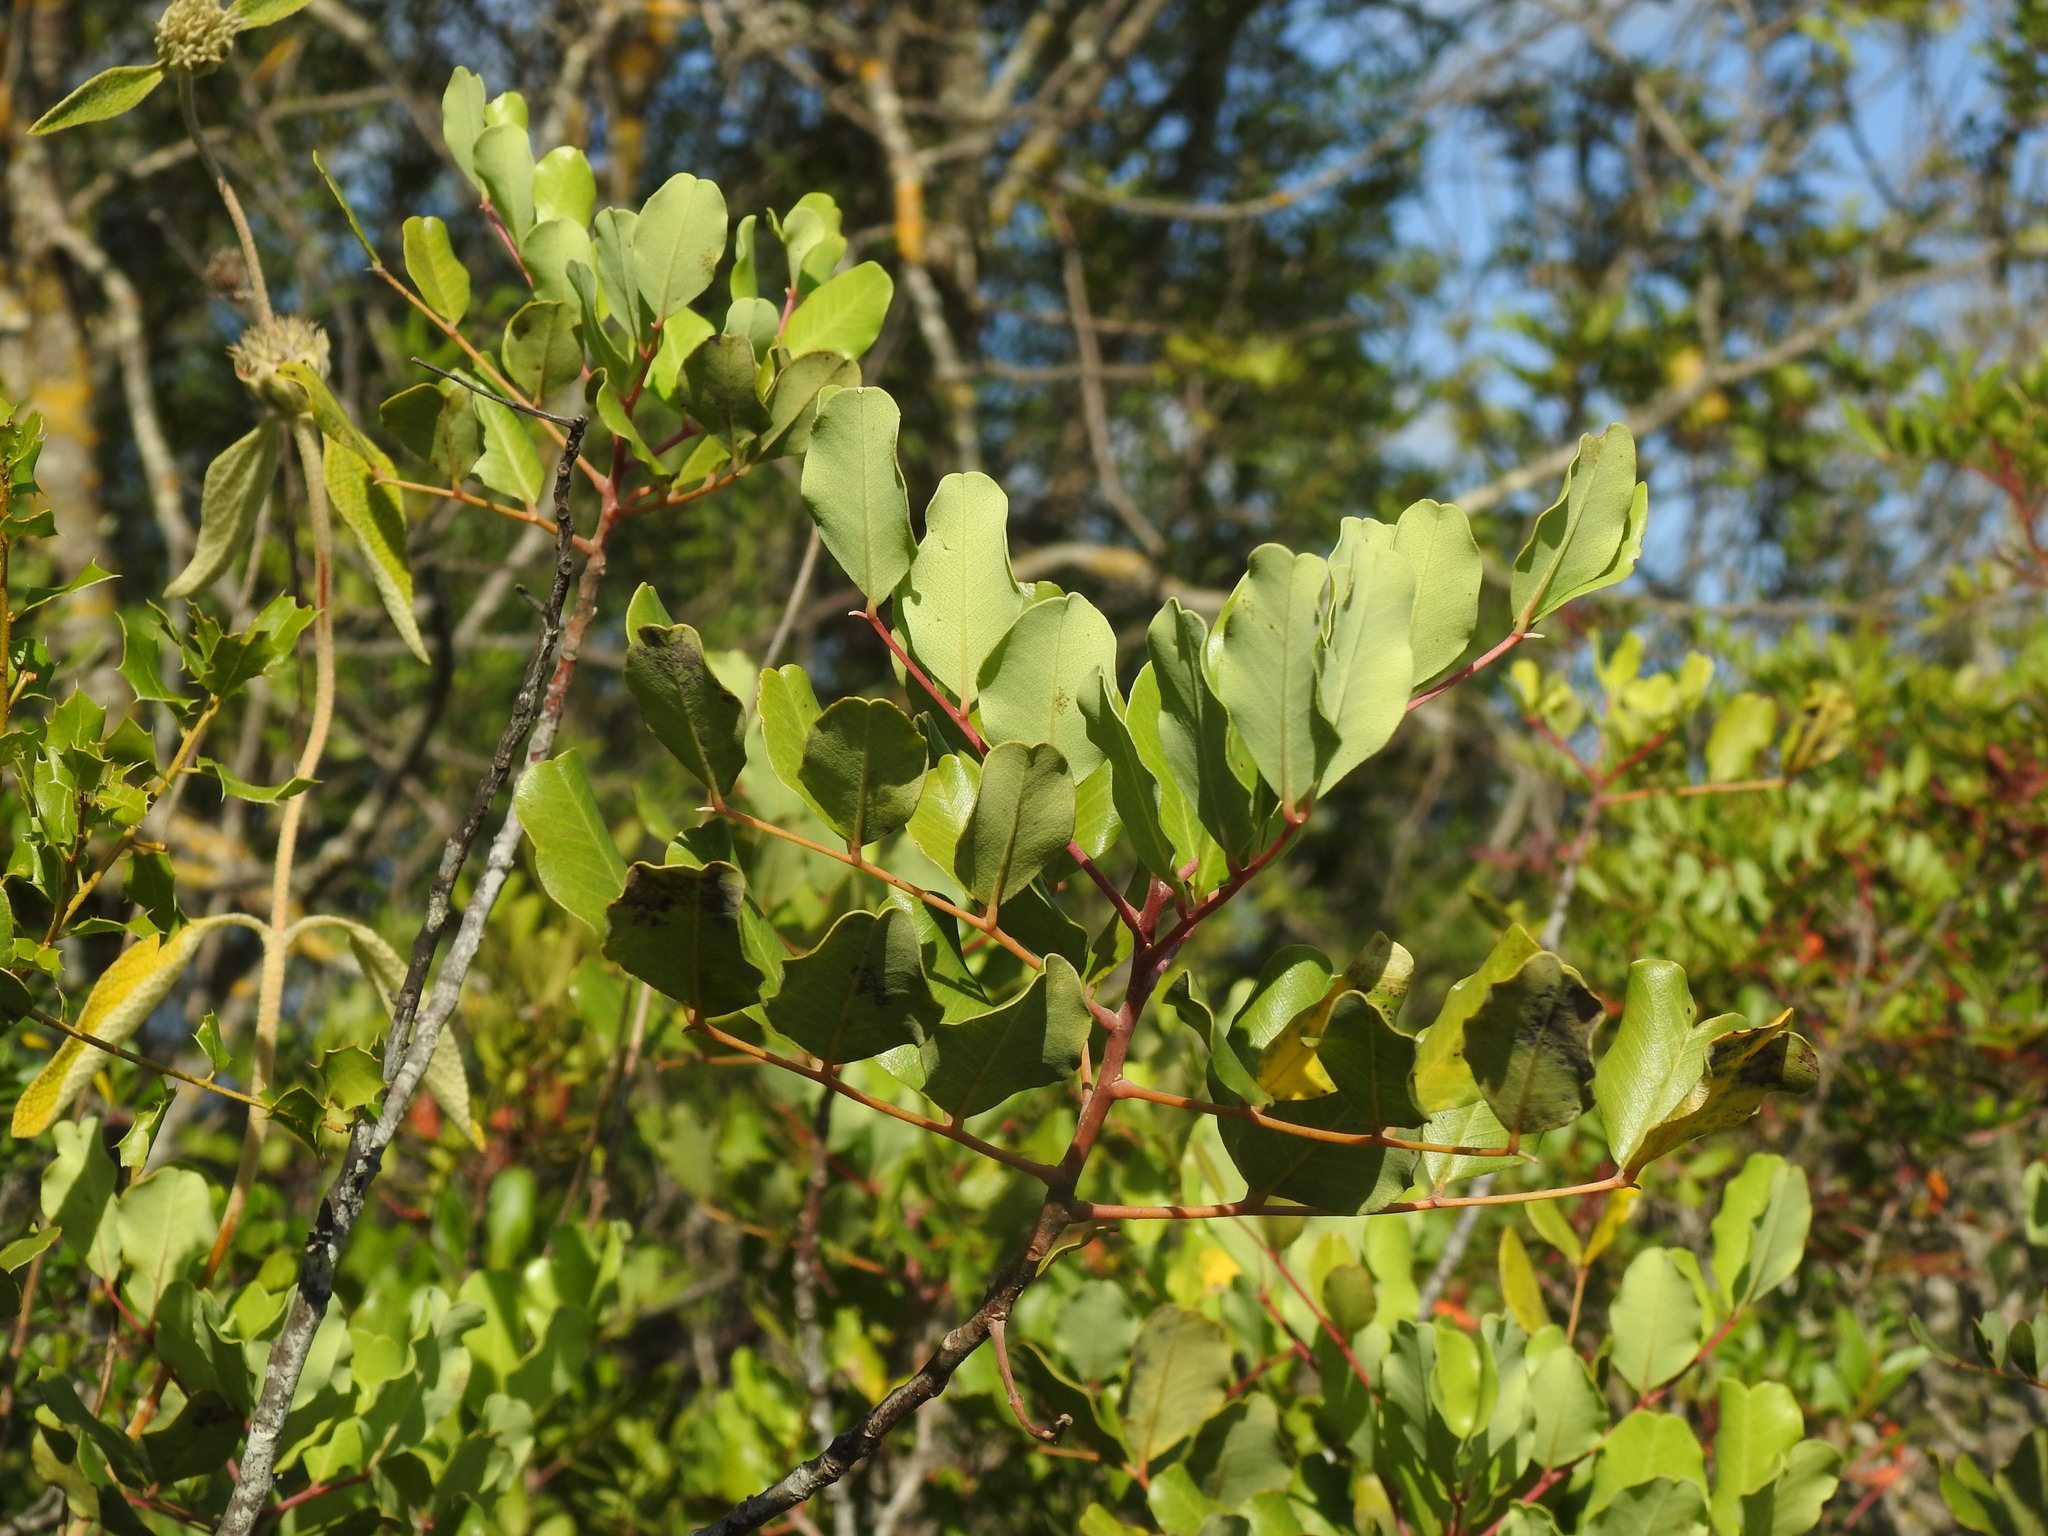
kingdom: Plantae
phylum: Tracheophyta
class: Magnoliopsida
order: Fabales
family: Fabaceae
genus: Ceratonia
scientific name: Ceratonia siliqua
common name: Carob
